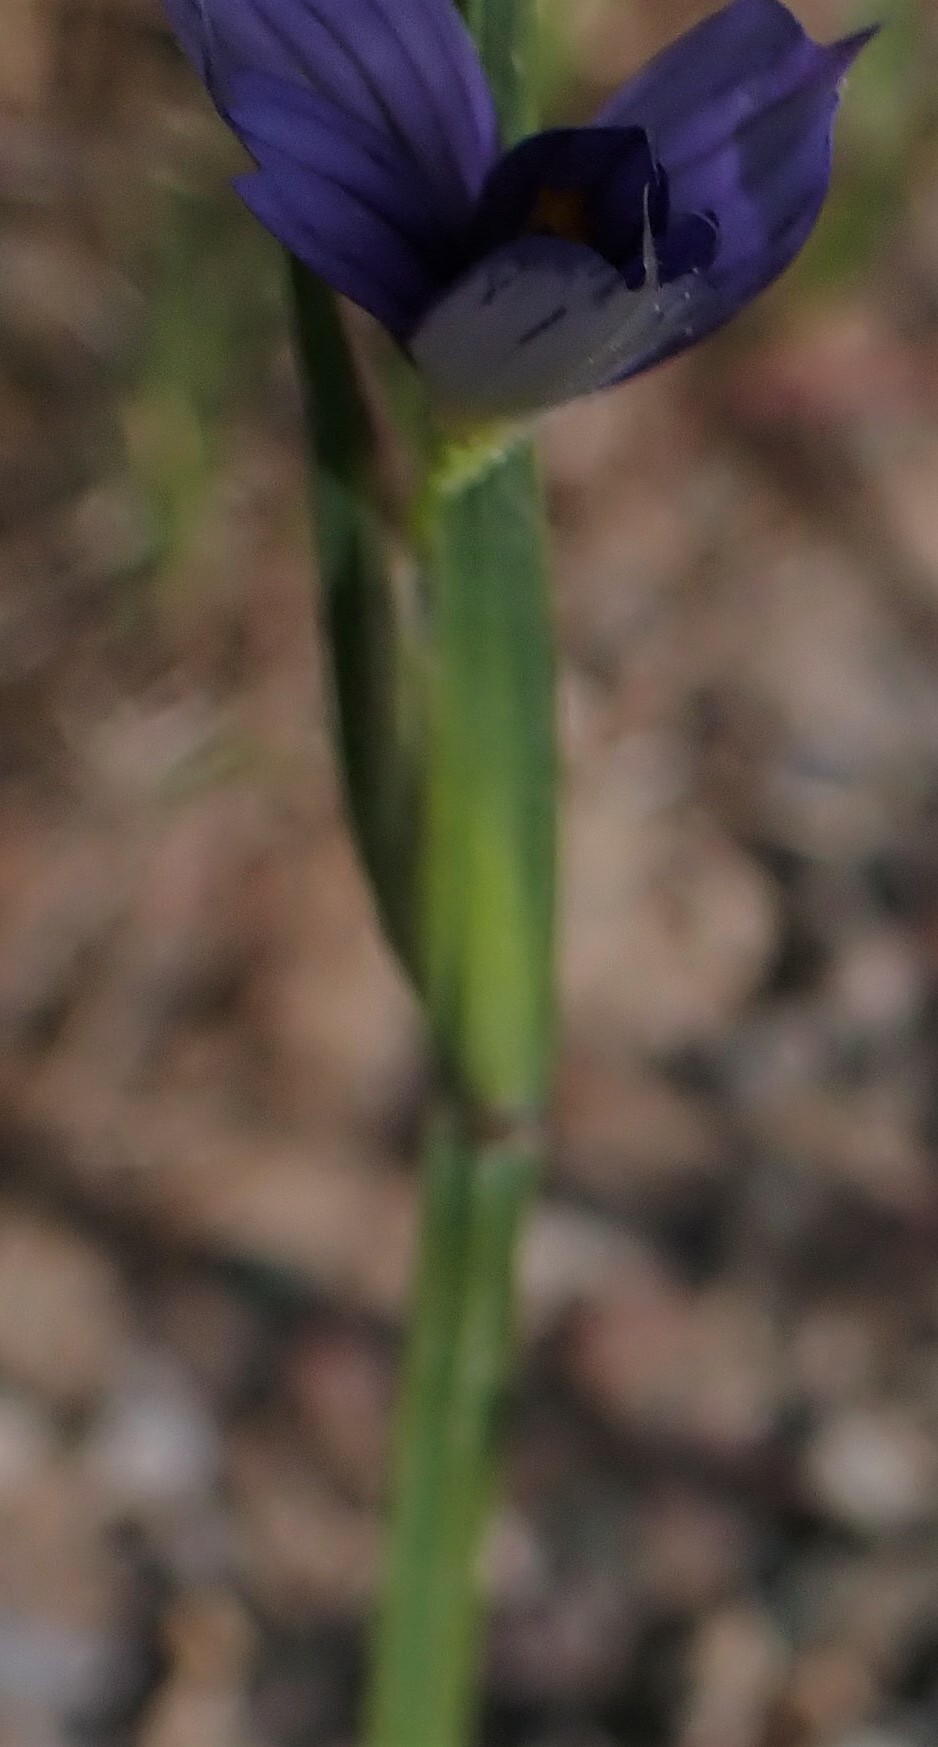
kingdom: Plantae
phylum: Tracheophyta
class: Liliopsida
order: Asparagales
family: Iridaceae
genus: Sisyrinchium
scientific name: Sisyrinchium montanum
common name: American blue-eyed-grass
